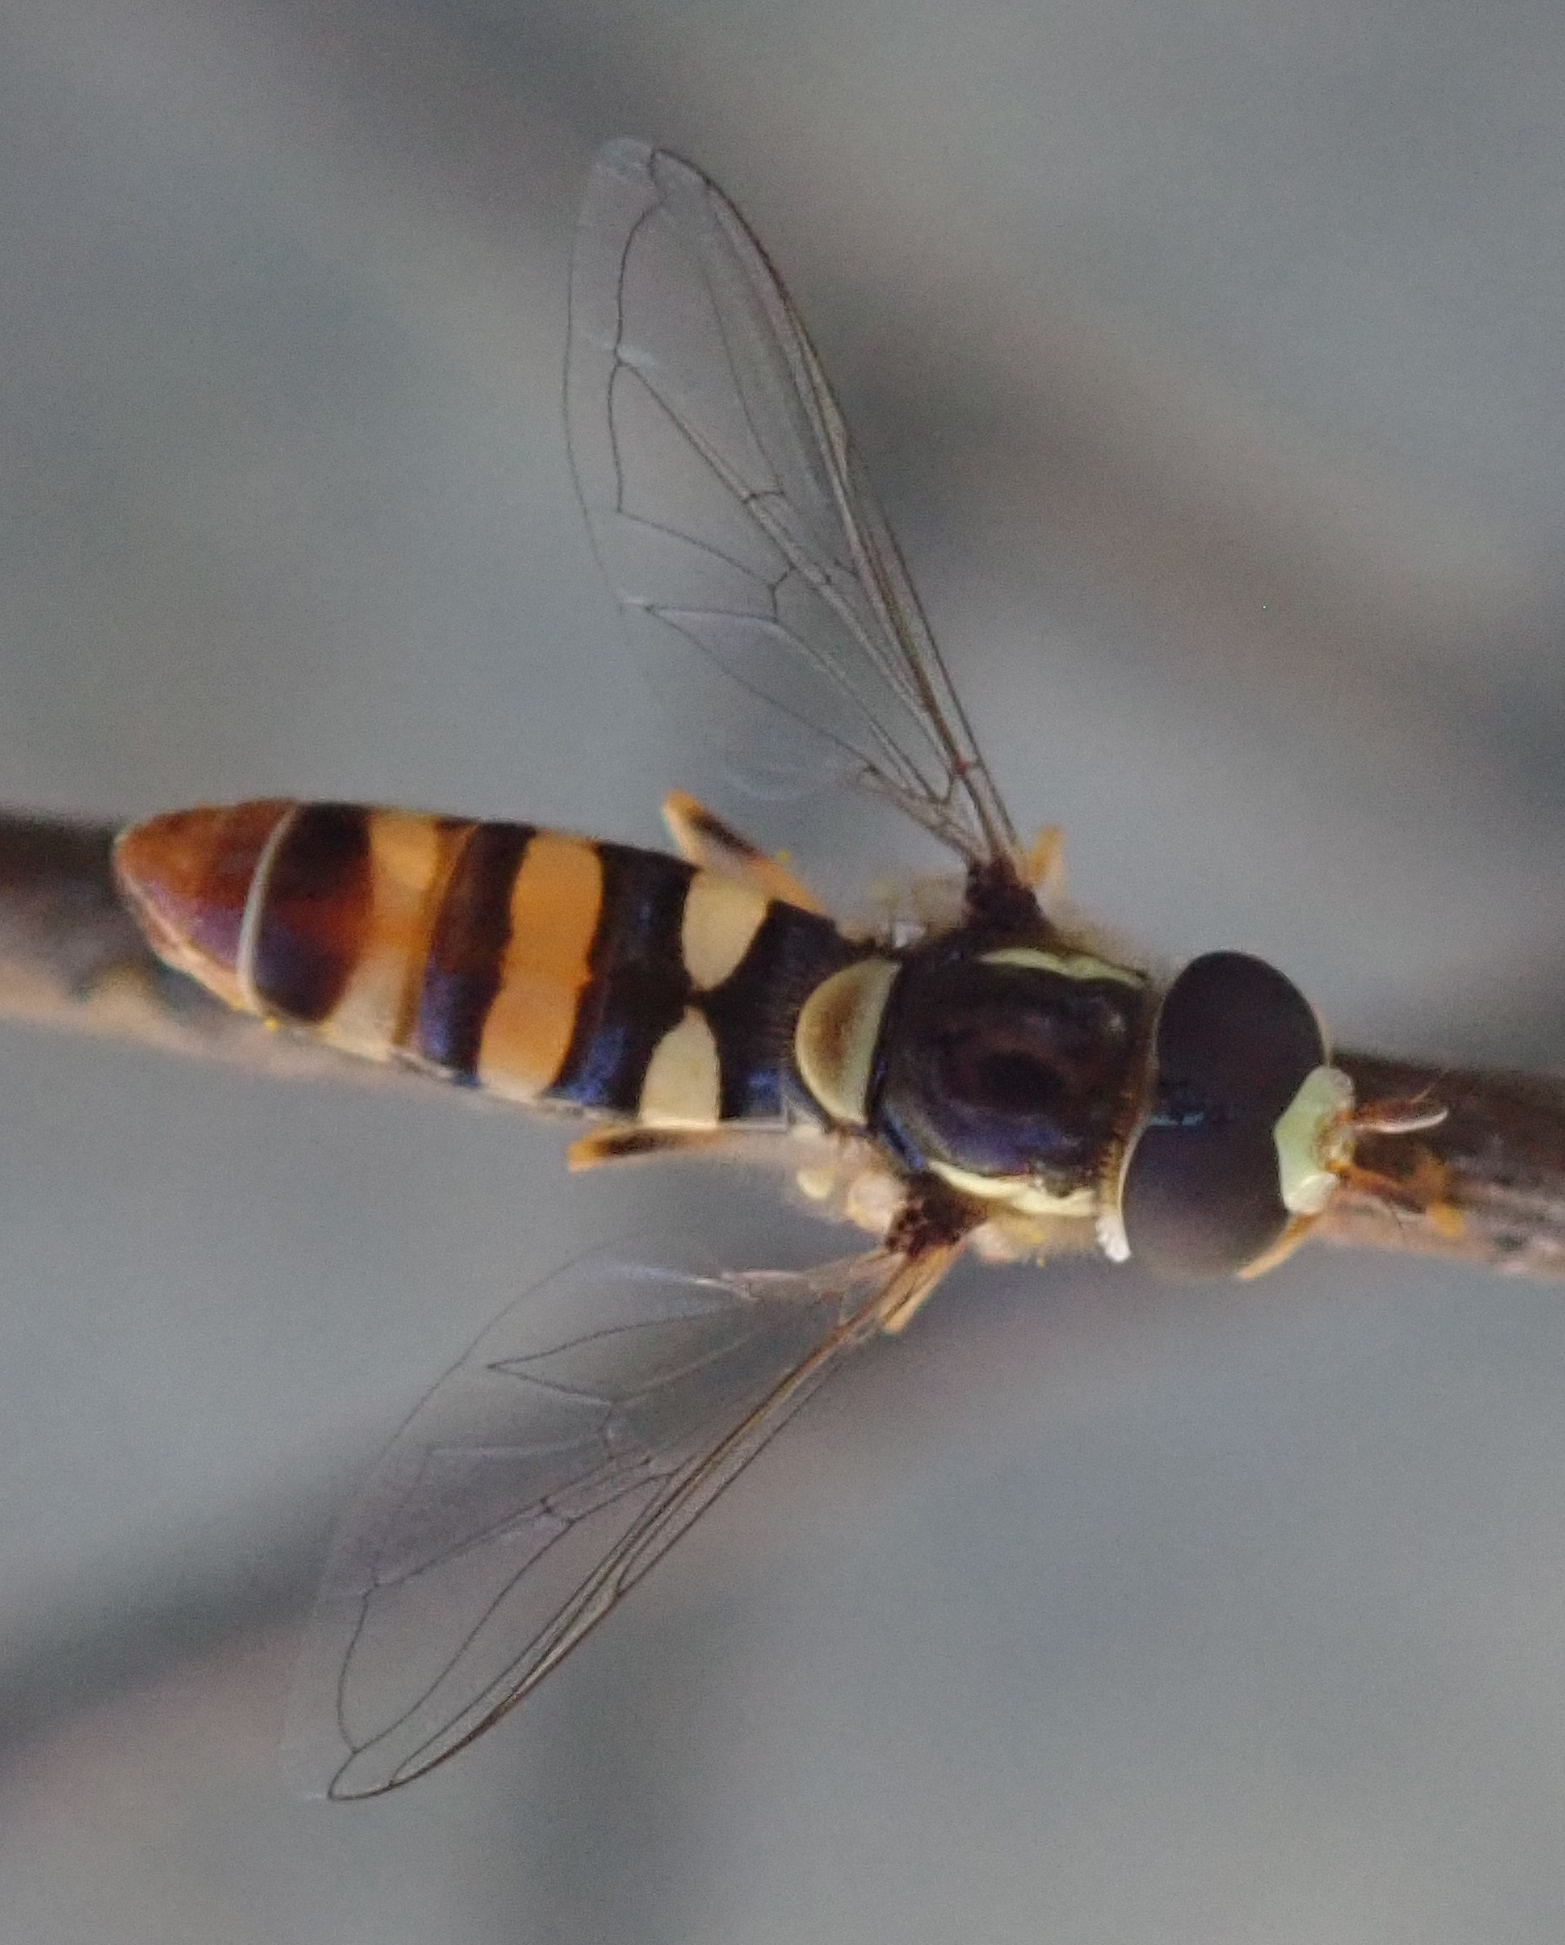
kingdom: Animalia
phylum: Arthropoda
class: Insecta
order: Diptera
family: Syrphidae
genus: Ischiodon
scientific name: Ischiodon aegyptius
